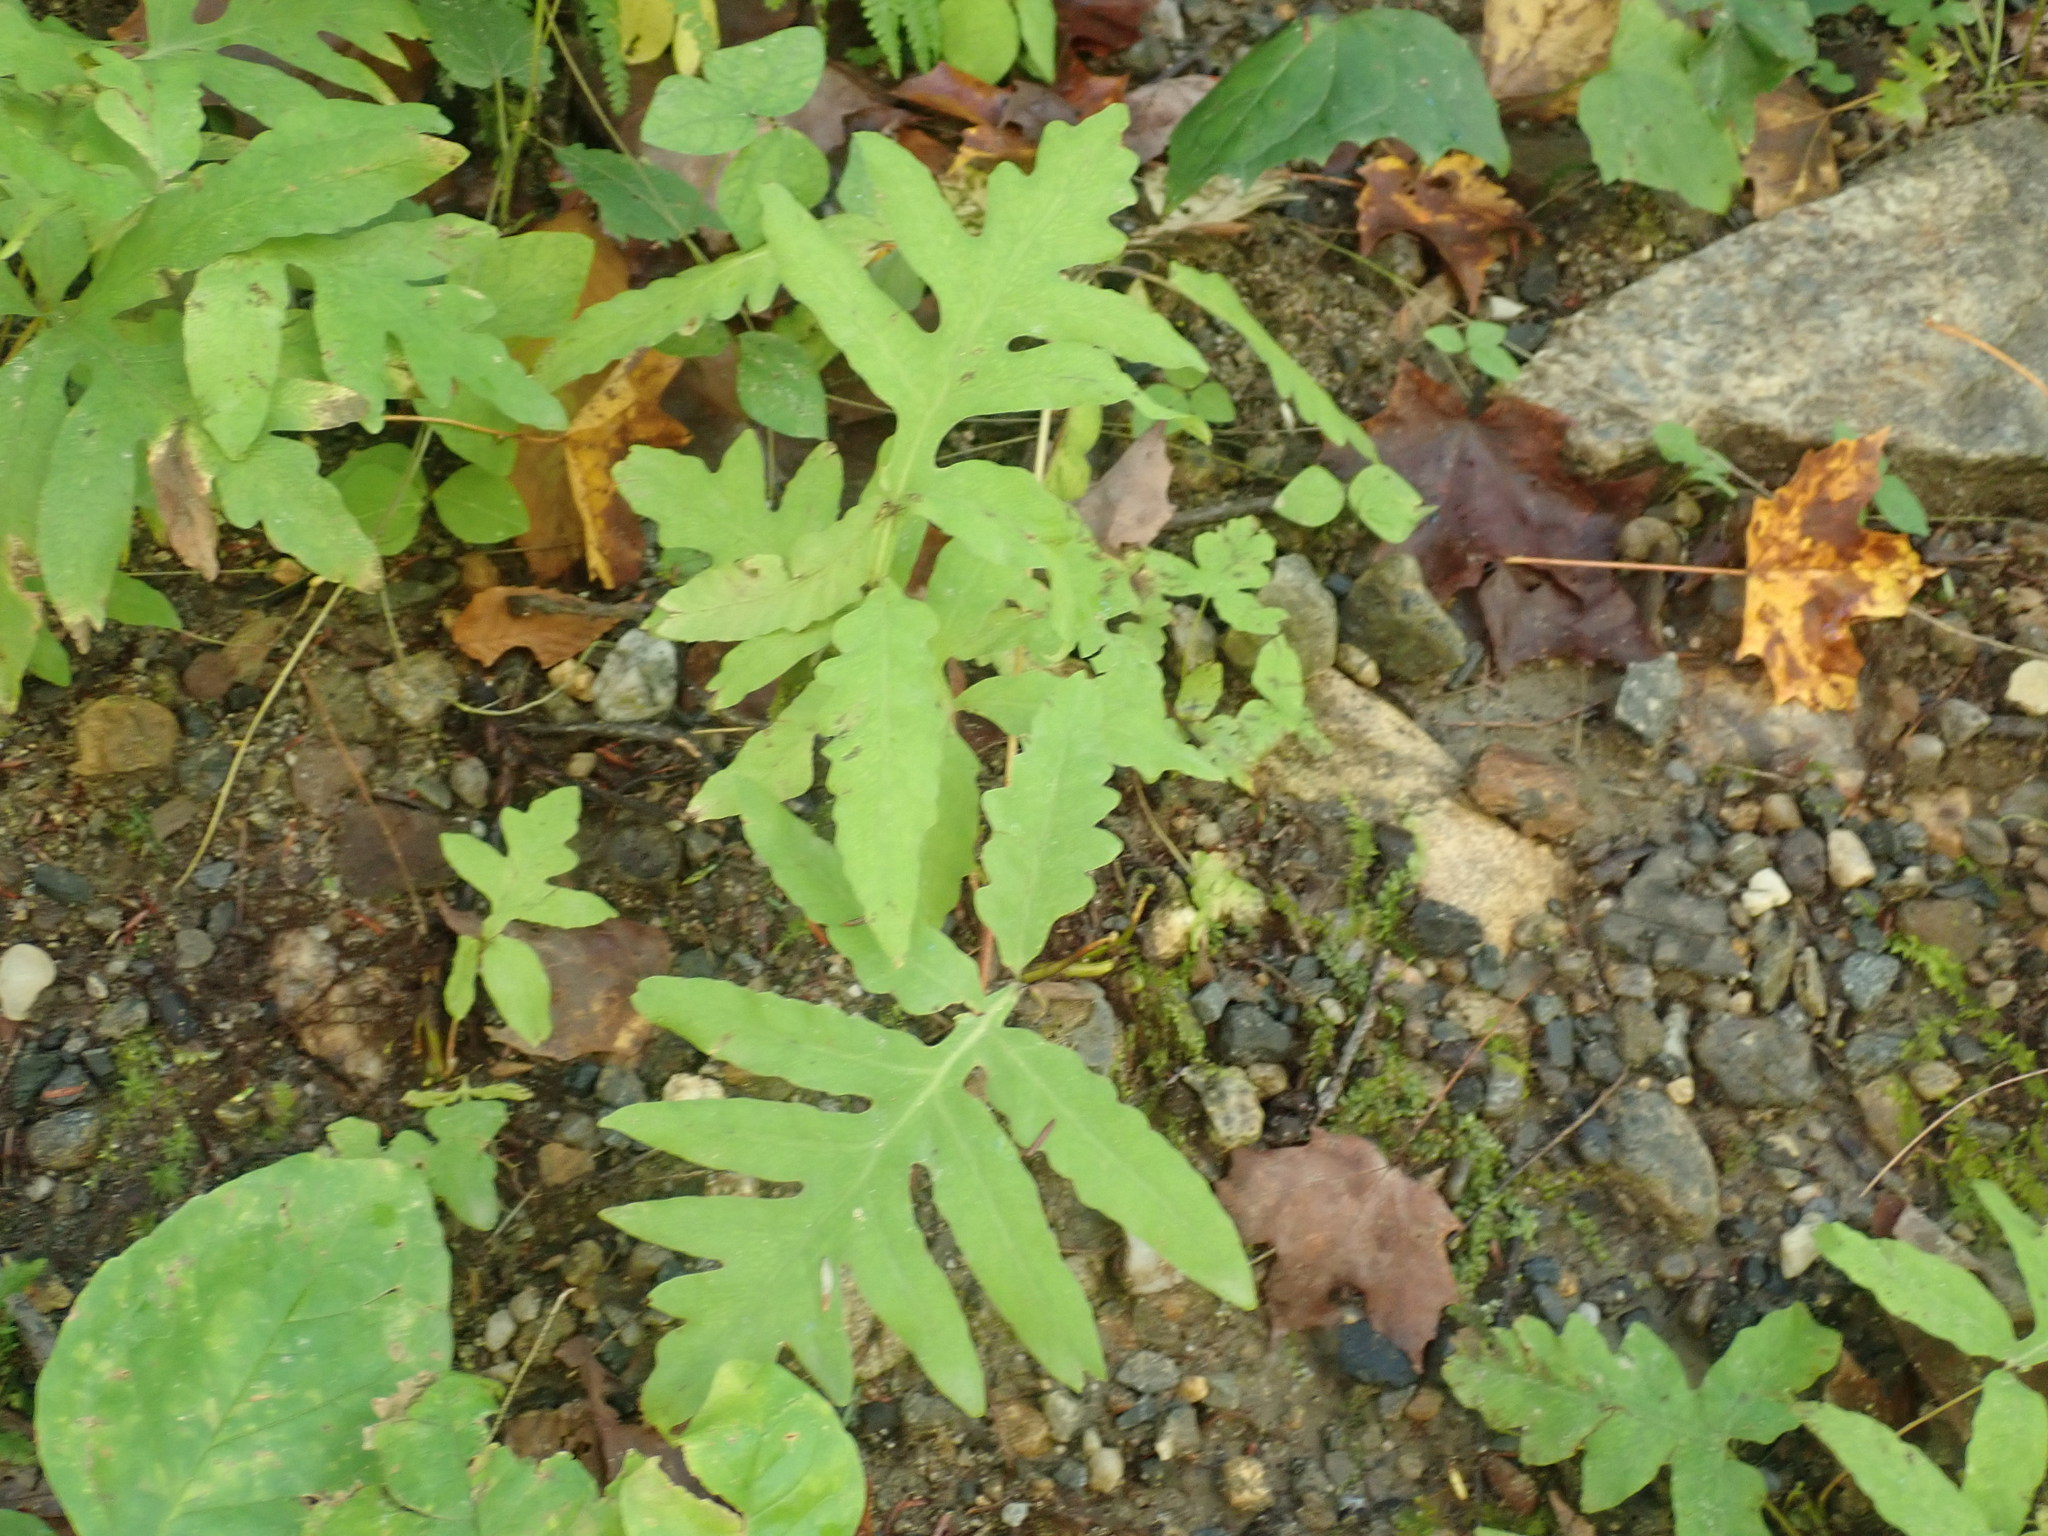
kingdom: Plantae
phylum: Tracheophyta
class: Polypodiopsida
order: Polypodiales
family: Onocleaceae
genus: Onoclea
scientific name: Onoclea sensibilis
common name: Sensitive fern
